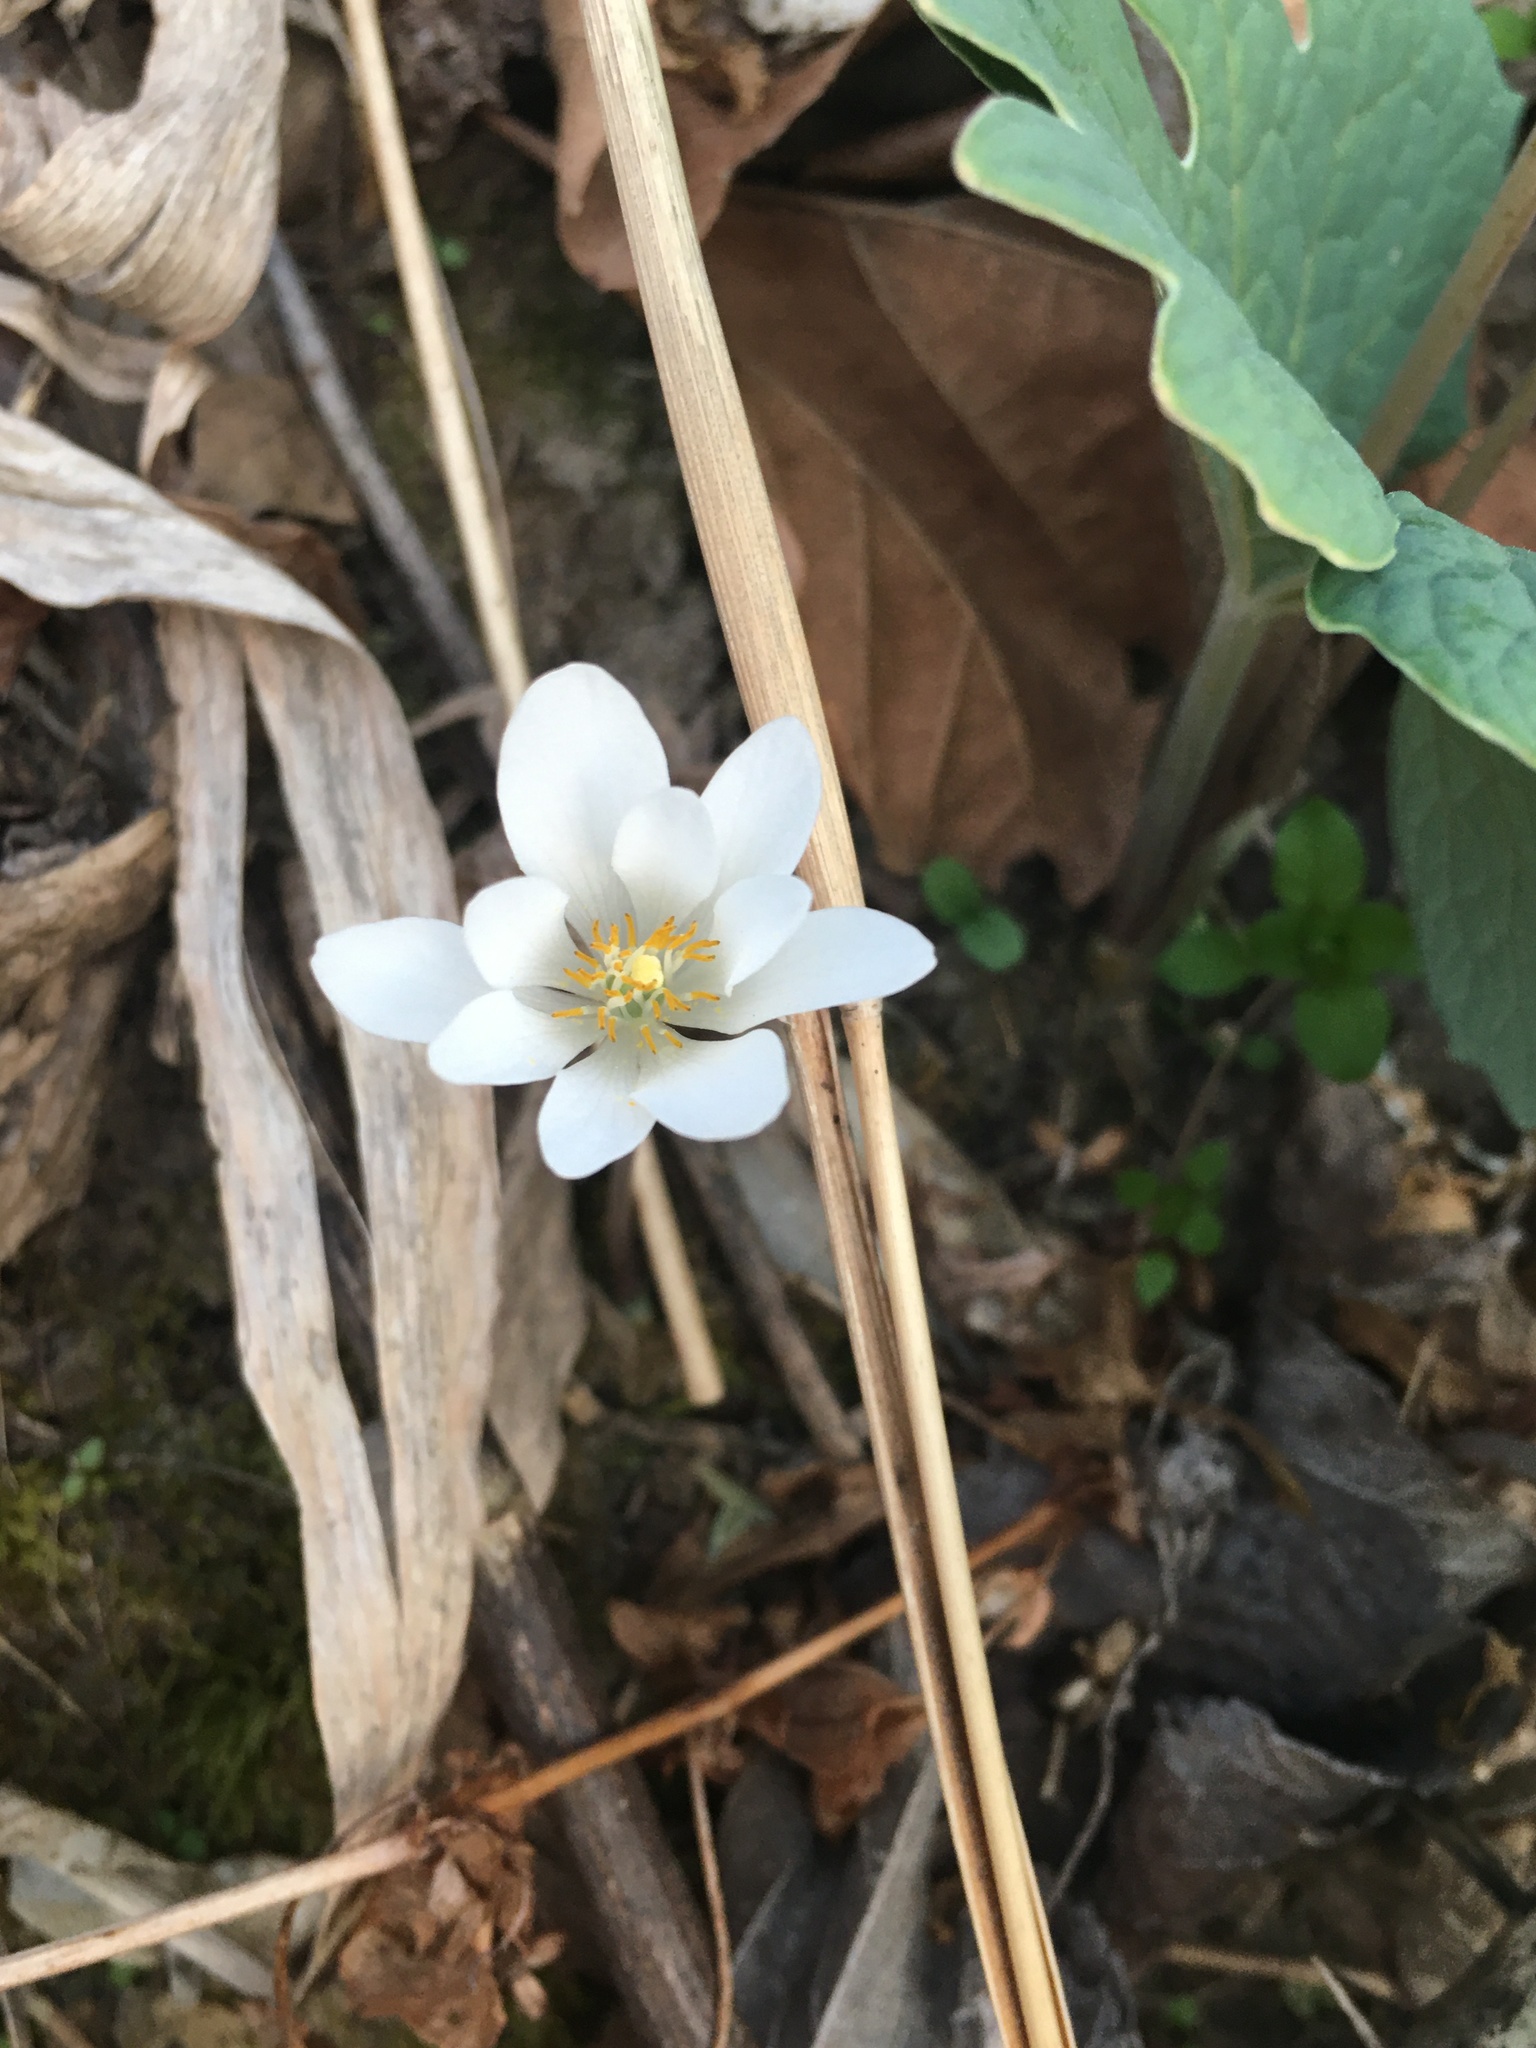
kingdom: Plantae
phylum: Tracheophyta
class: Magnoliopsida
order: Ranunculales
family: Papaveraceae
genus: Sanguinaria
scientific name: Sanguinaria canadensis
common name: Bloodroot
